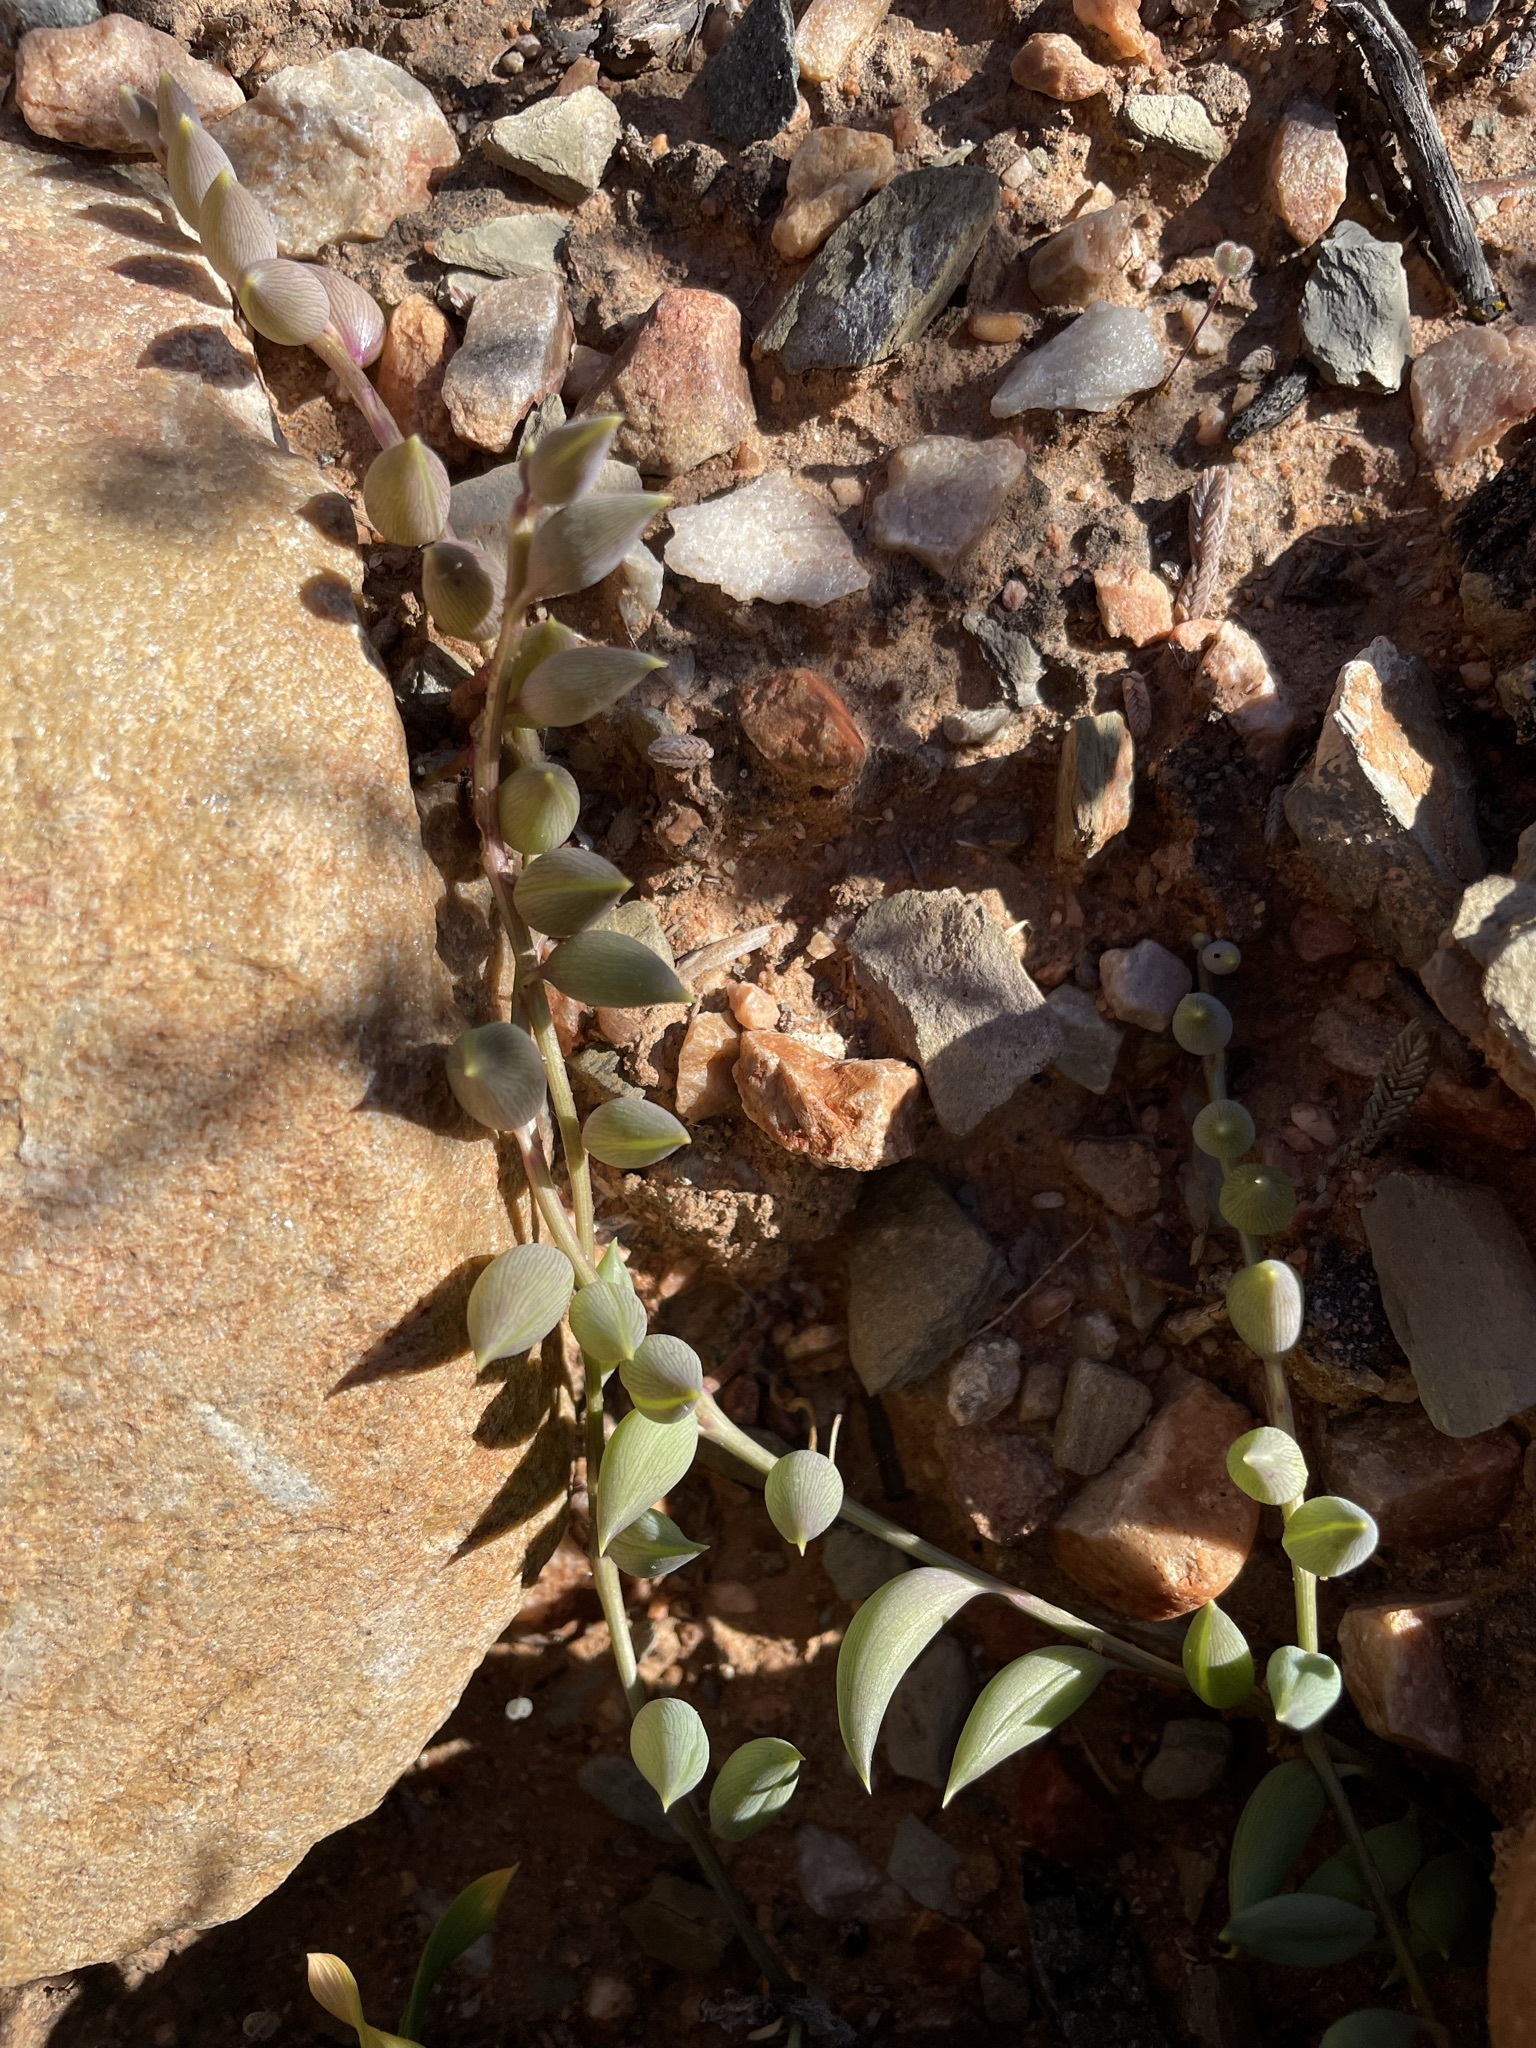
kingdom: Plantae
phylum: Tracheophyta
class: Magnoliopsida
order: Asterales
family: Asteraceae
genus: Curio
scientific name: Curio radicans
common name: Creeping-berry
